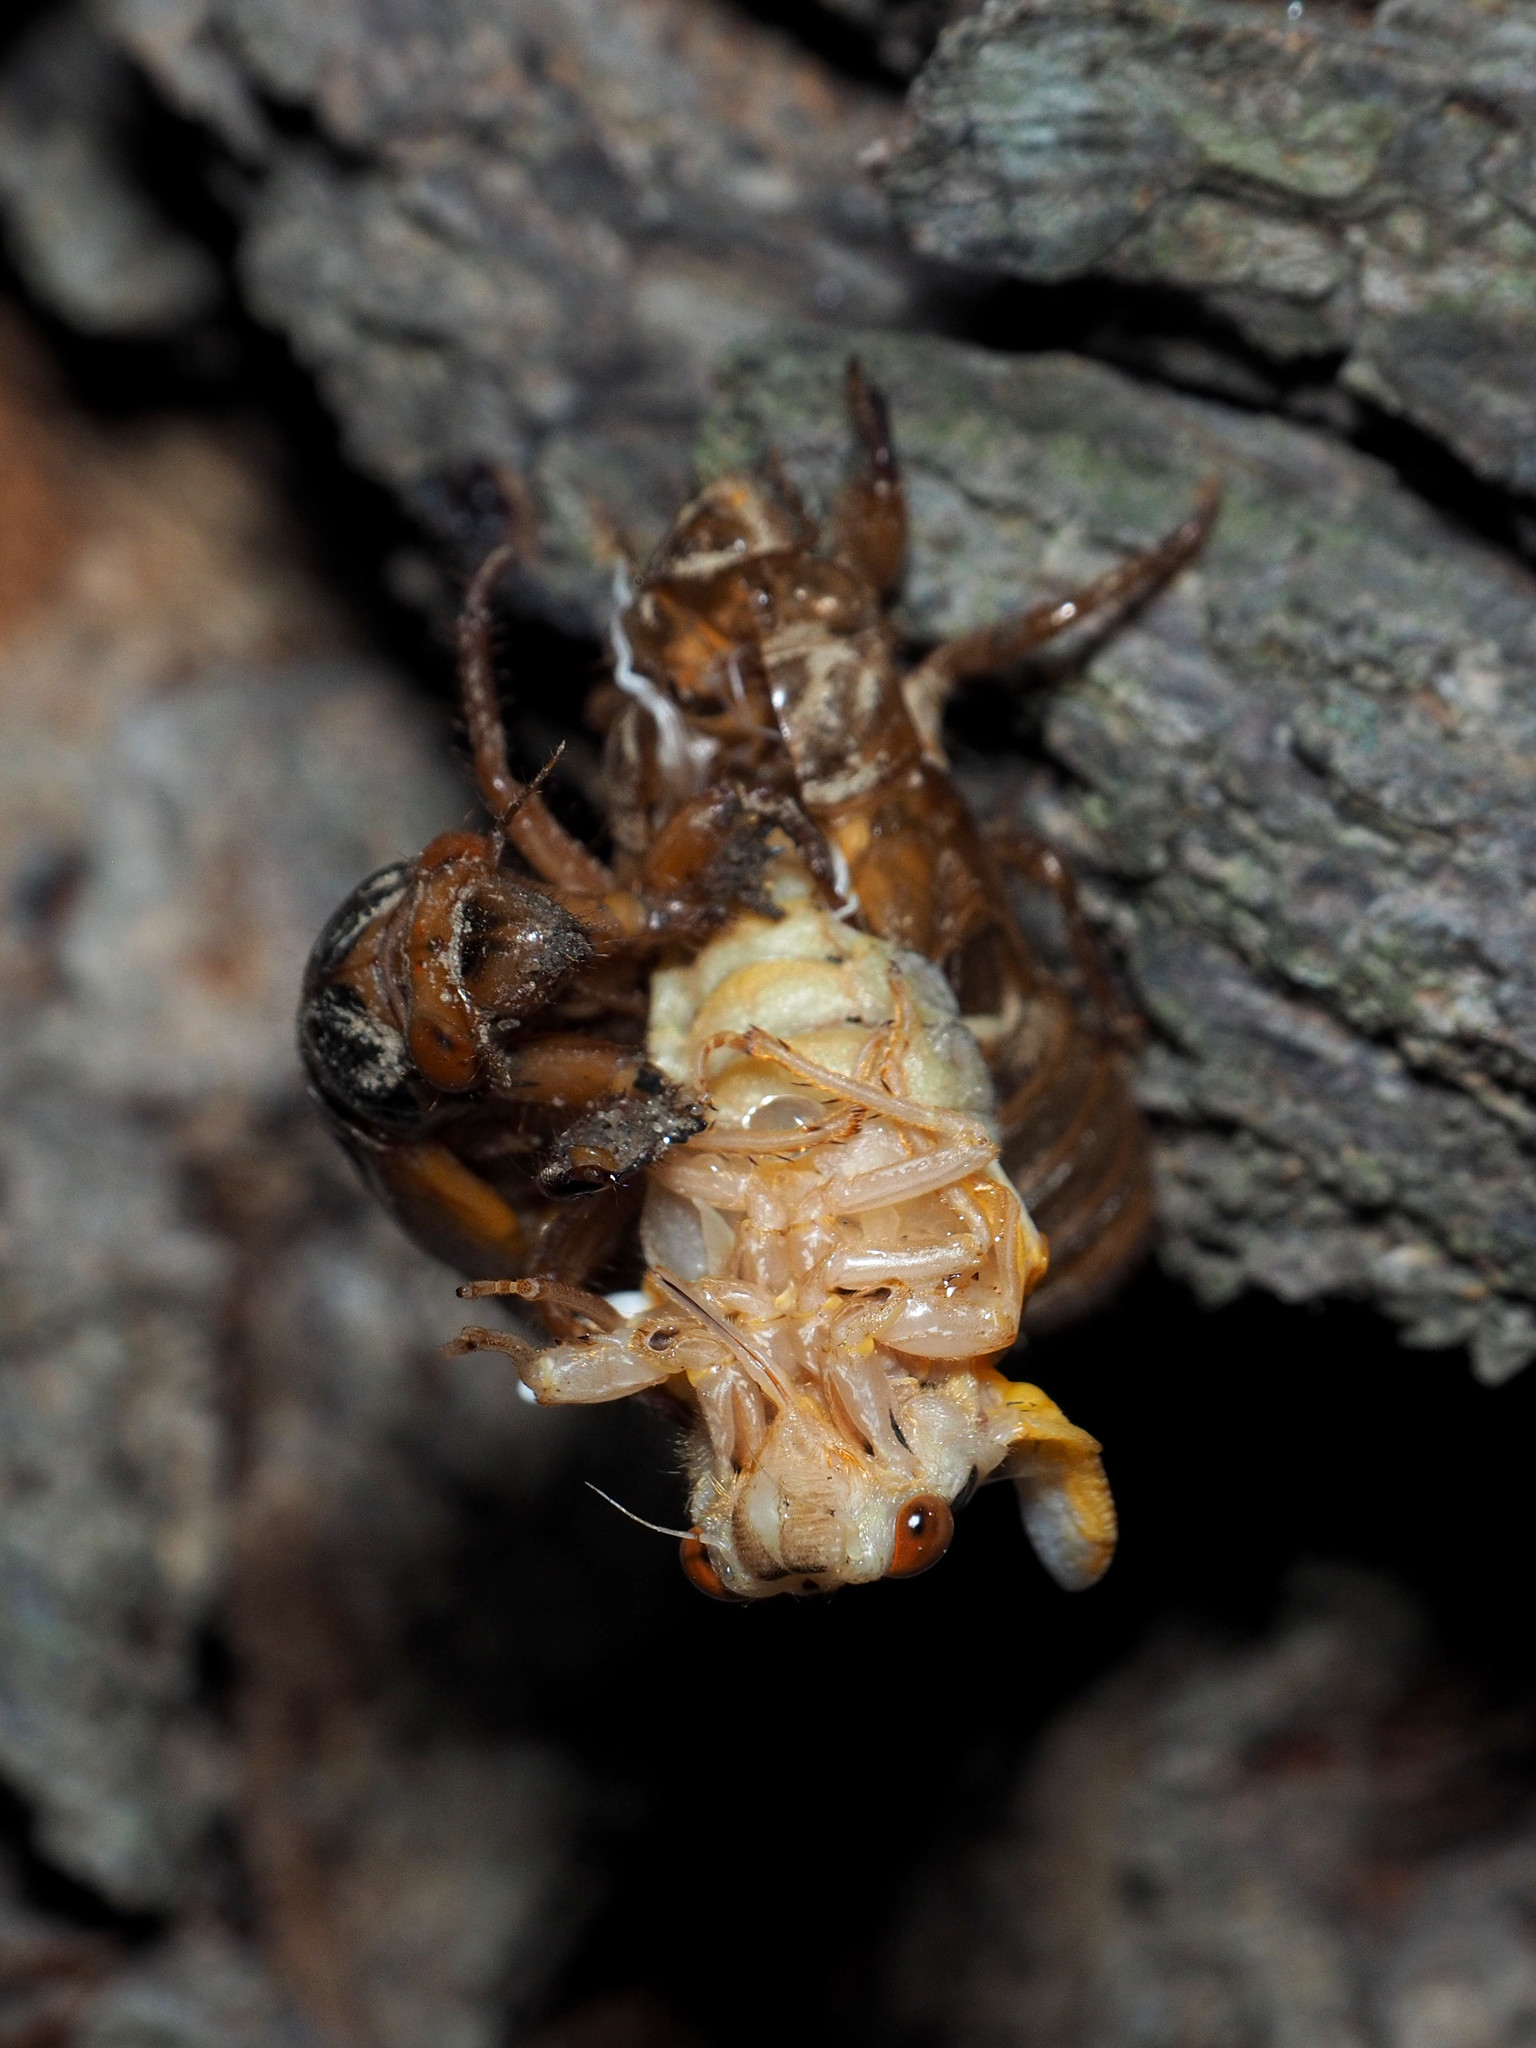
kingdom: Animalia
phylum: Arthropoda
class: Insecta
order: Hemiptera
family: Cicadidae
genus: Magicicada
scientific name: Magicicada
